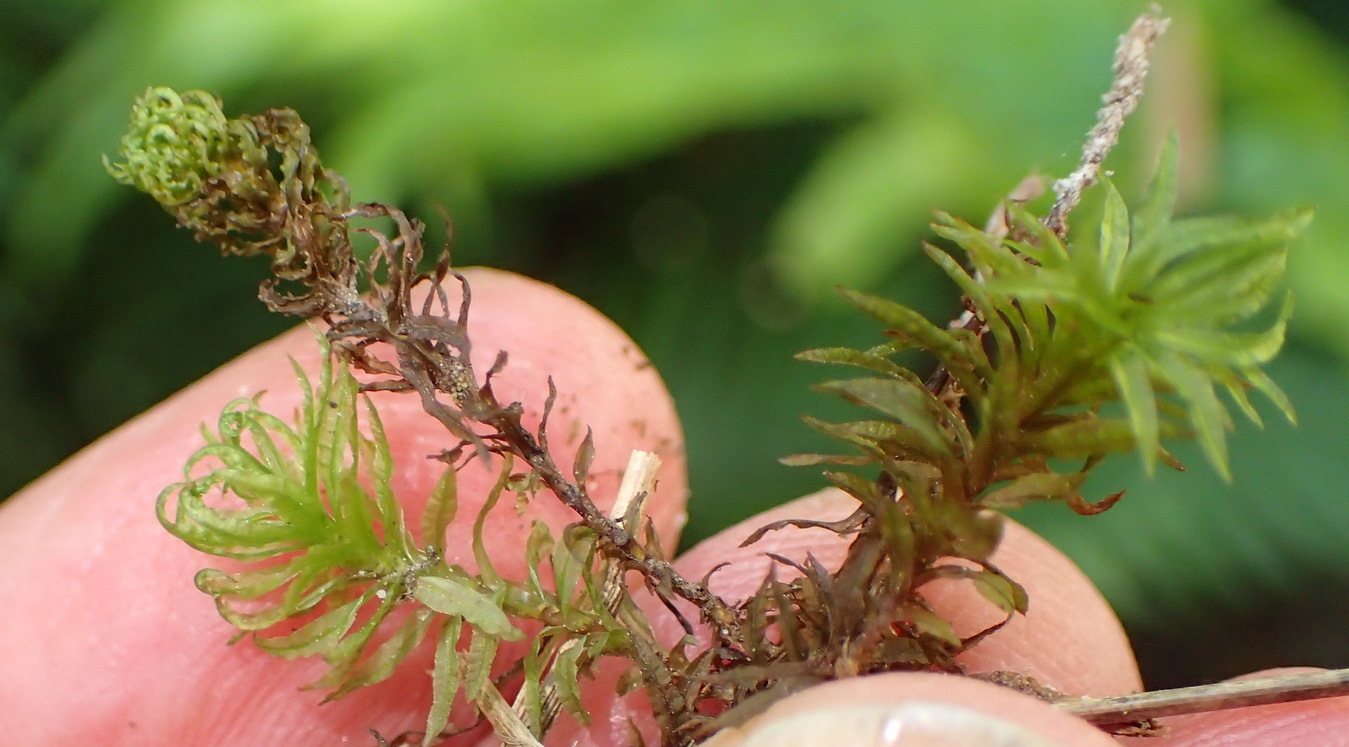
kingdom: Plantae
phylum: Bryophyta
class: Polytrichopsida
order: Polytrichales
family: Polytrichaceae
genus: Atrichum
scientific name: Atrichum androgynum
